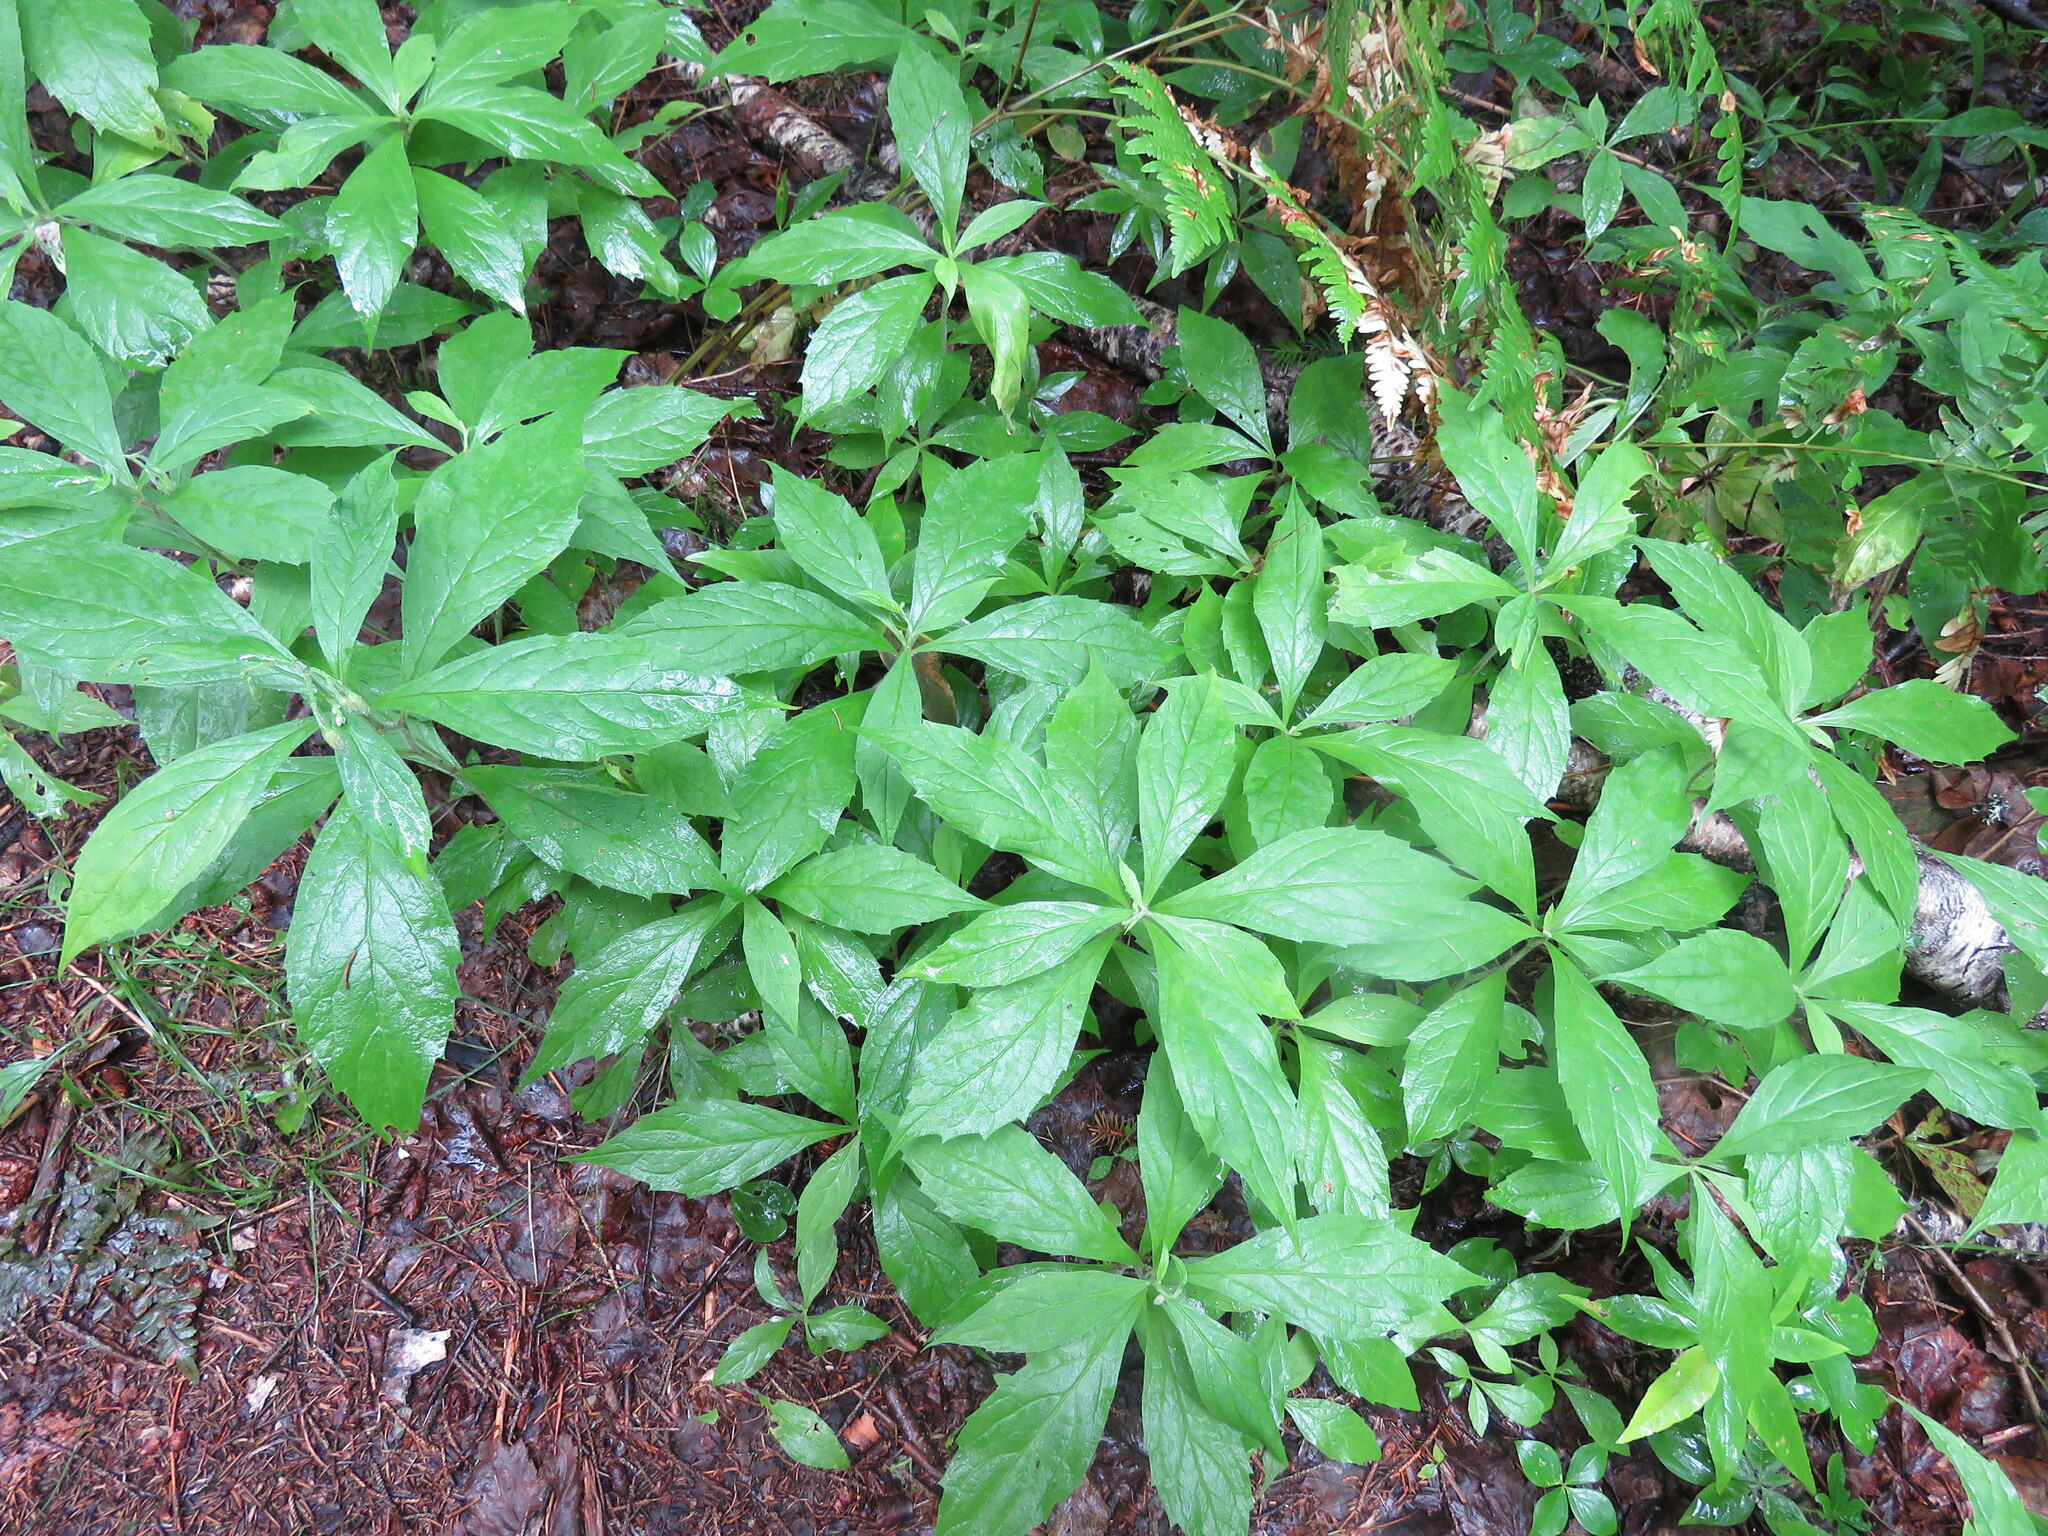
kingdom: Plantae
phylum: Tracheophyta
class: Magnoliopsida
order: Asterales
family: Asteraceae
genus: Oclemena
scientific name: Oclemena acuminata
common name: Mountain aster
